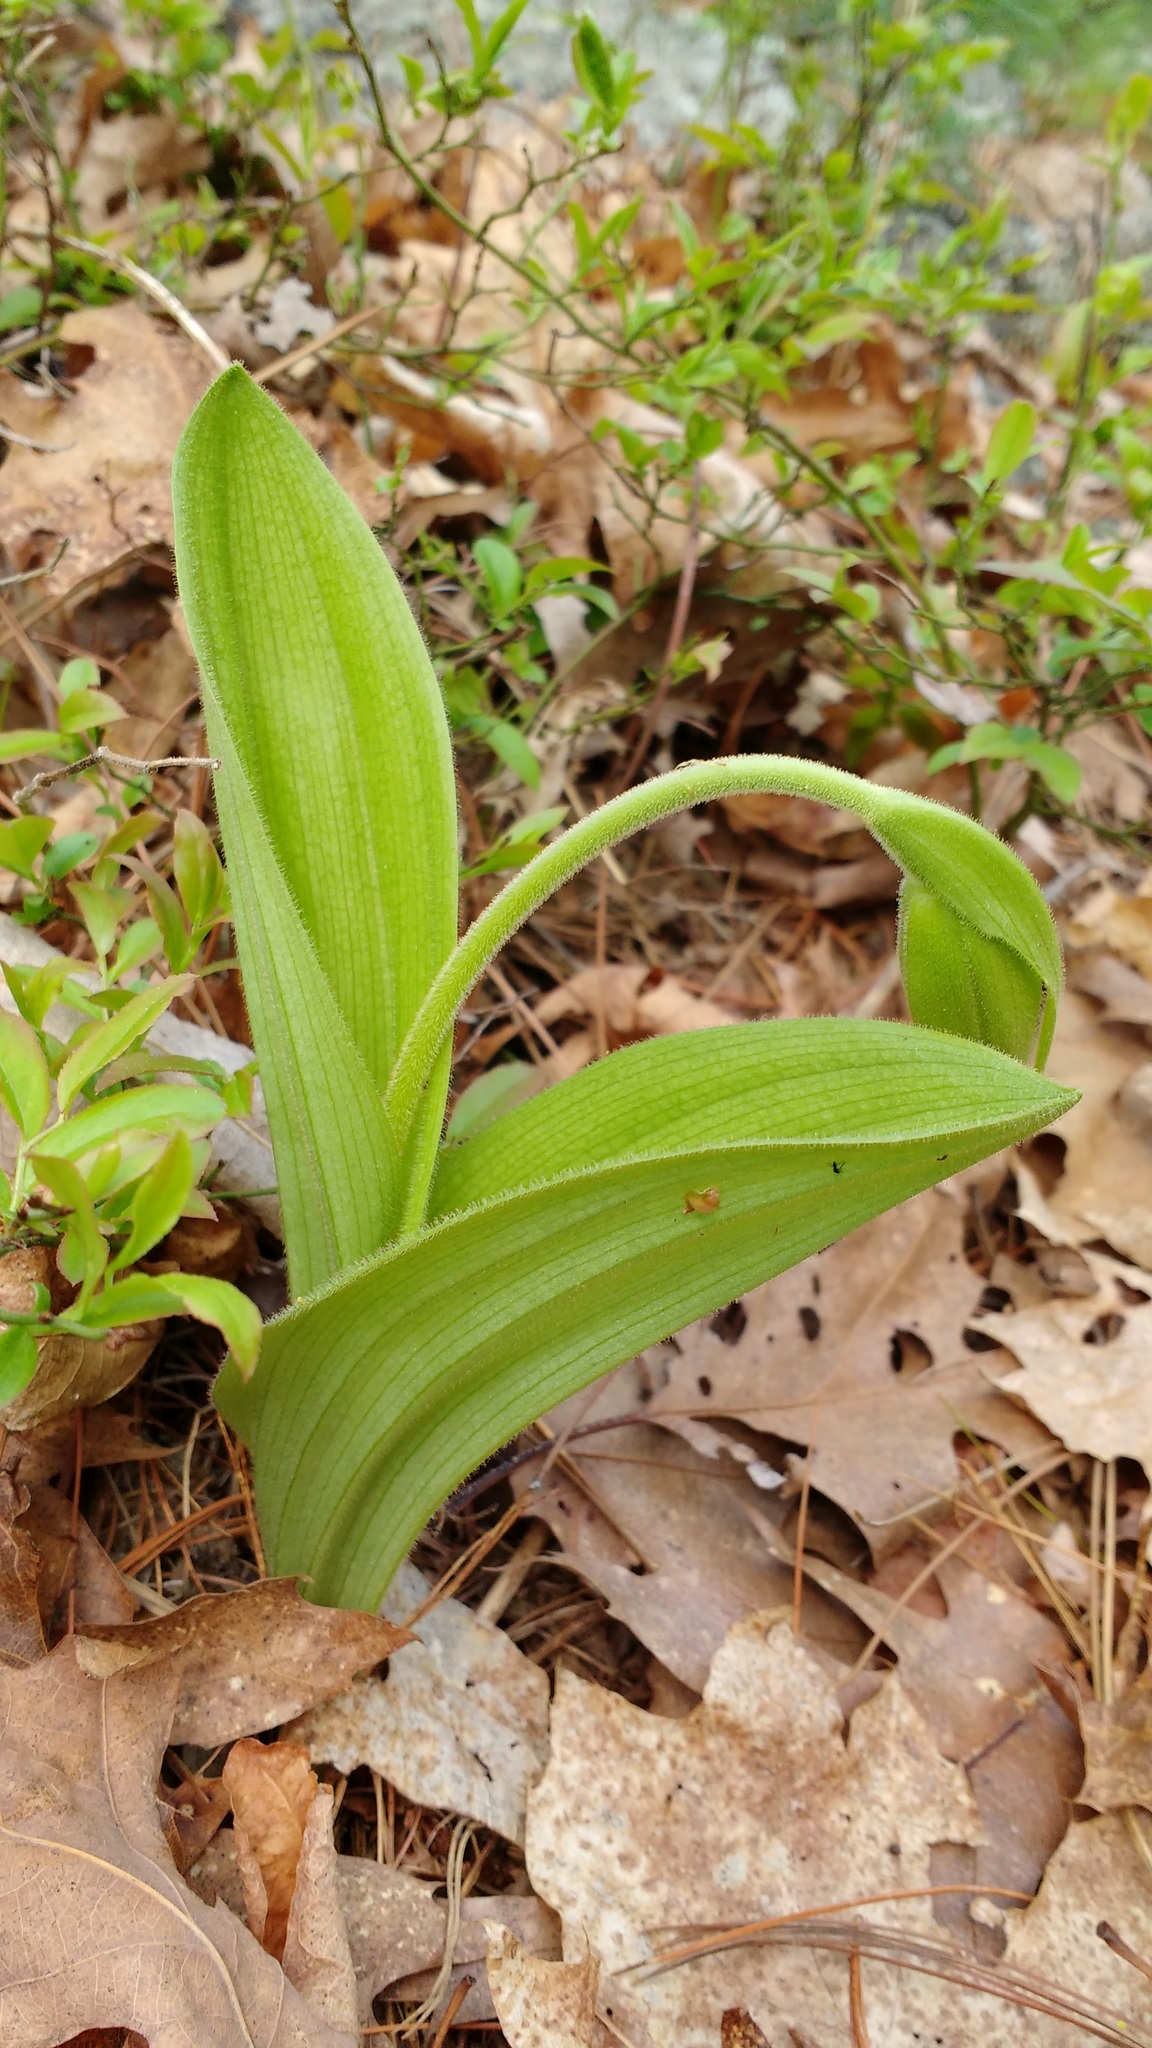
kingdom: Plantae
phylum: Tracheophyta
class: Liliopsida
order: Asparagales
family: Orchidaceae
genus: Cypripedium
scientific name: Cypripedium acaule
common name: Pink lady's-slipper
